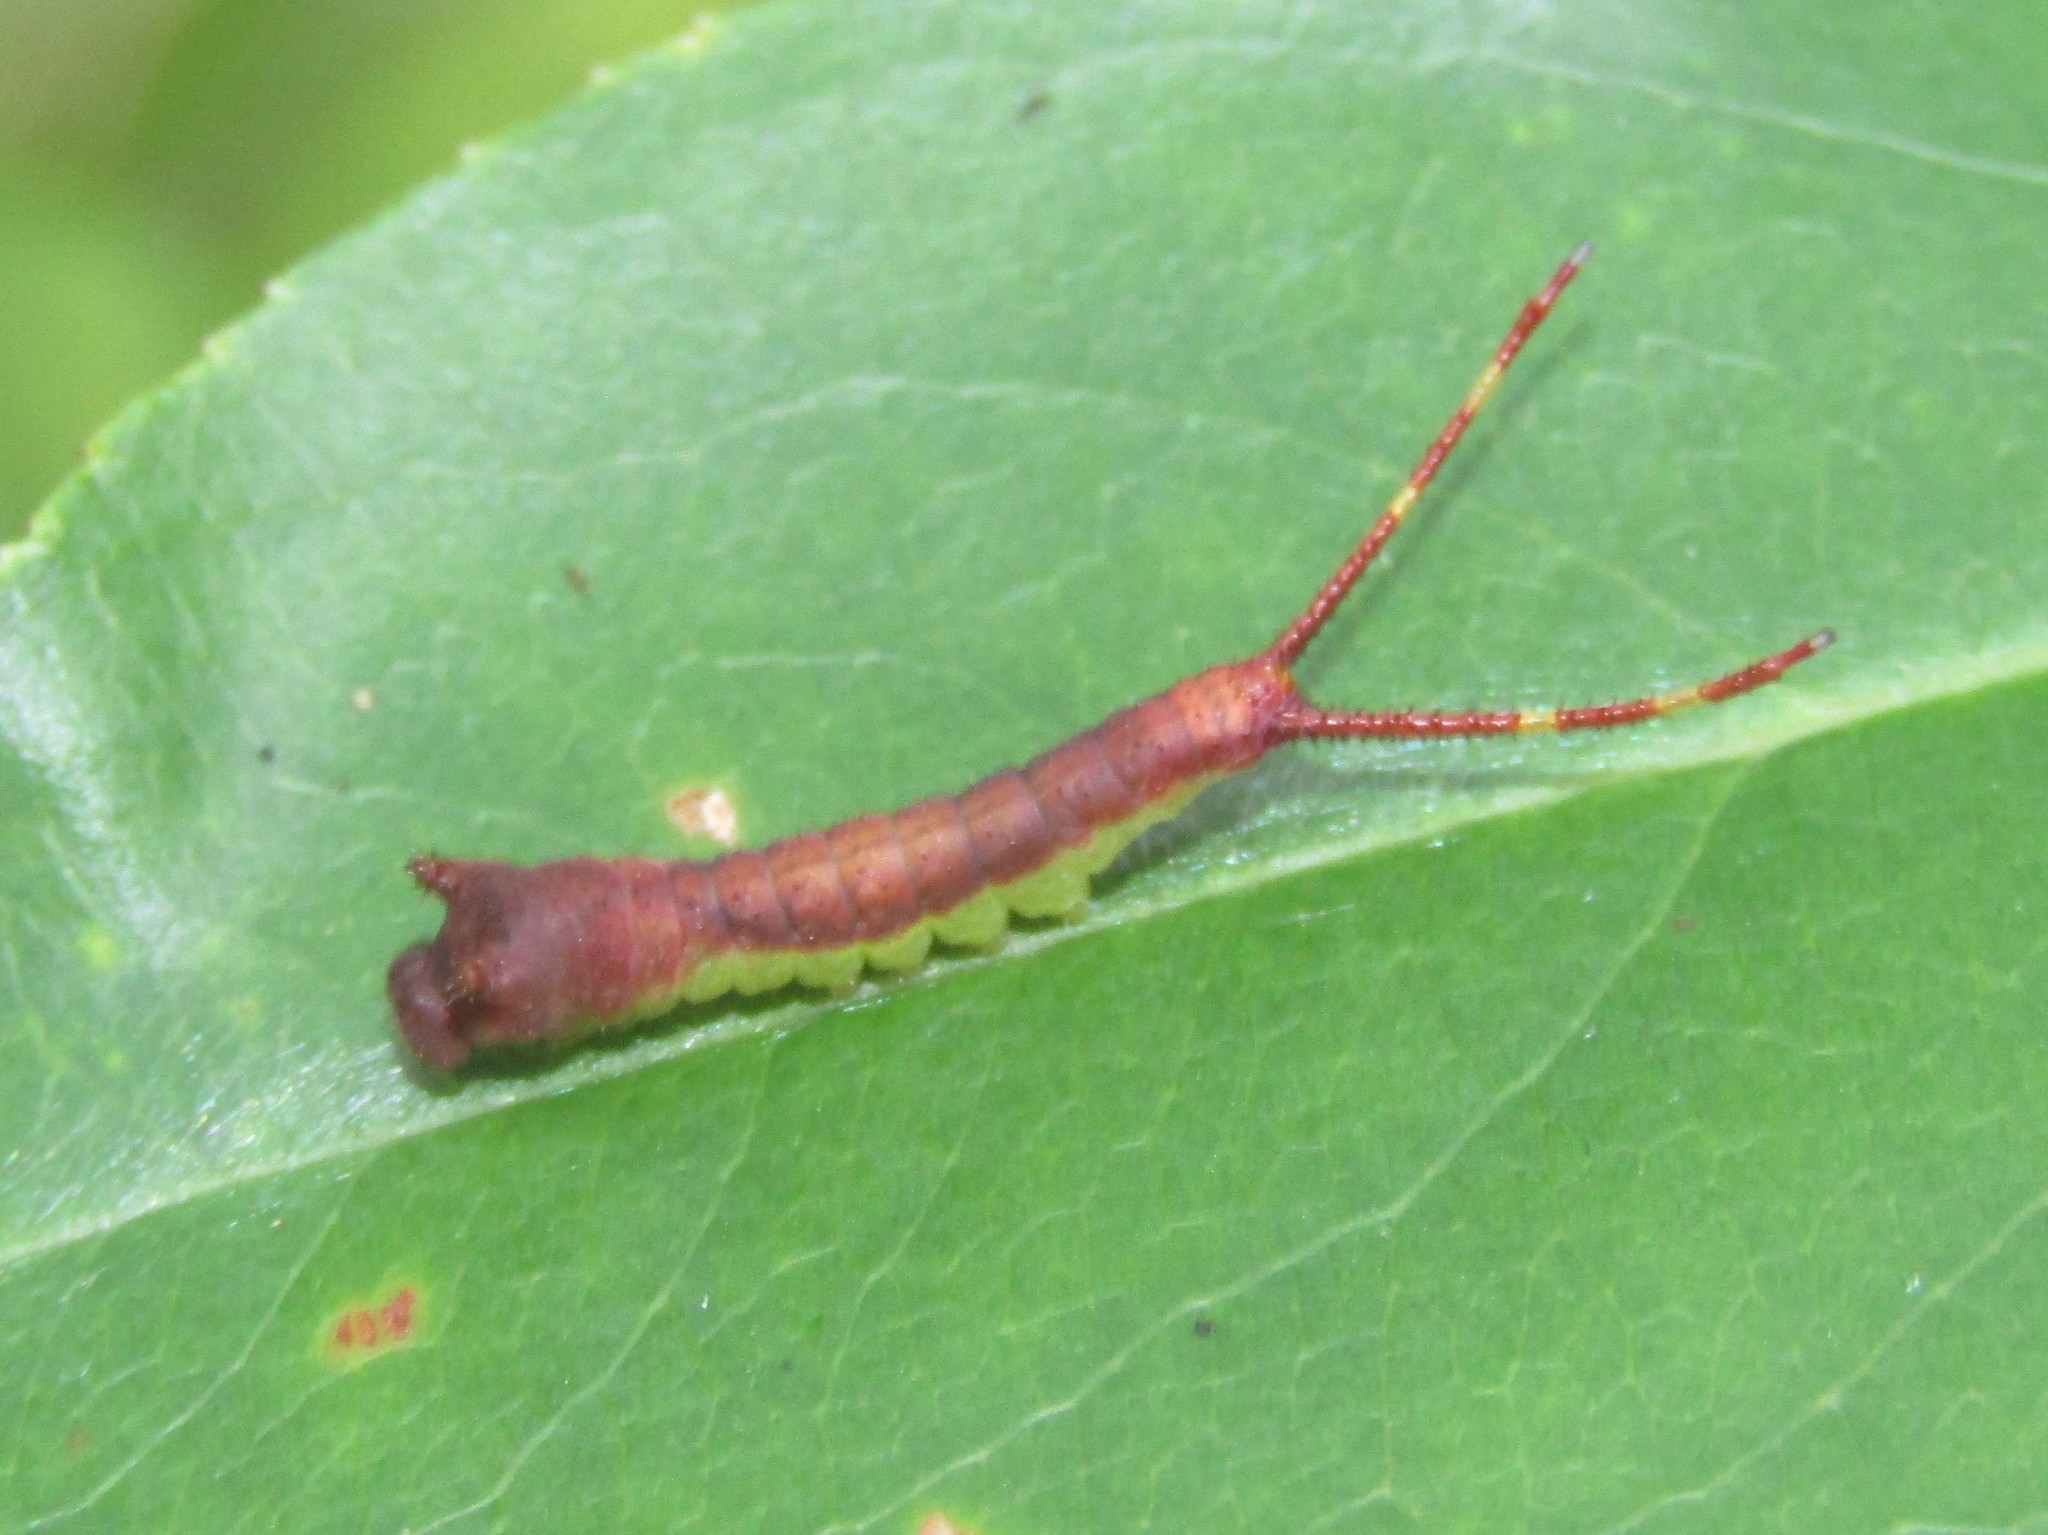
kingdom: Animalia
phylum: Arthropoda
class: Insecta
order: Lepidoptera
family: Notodontidae
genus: Furcula
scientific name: Furcula borealis
